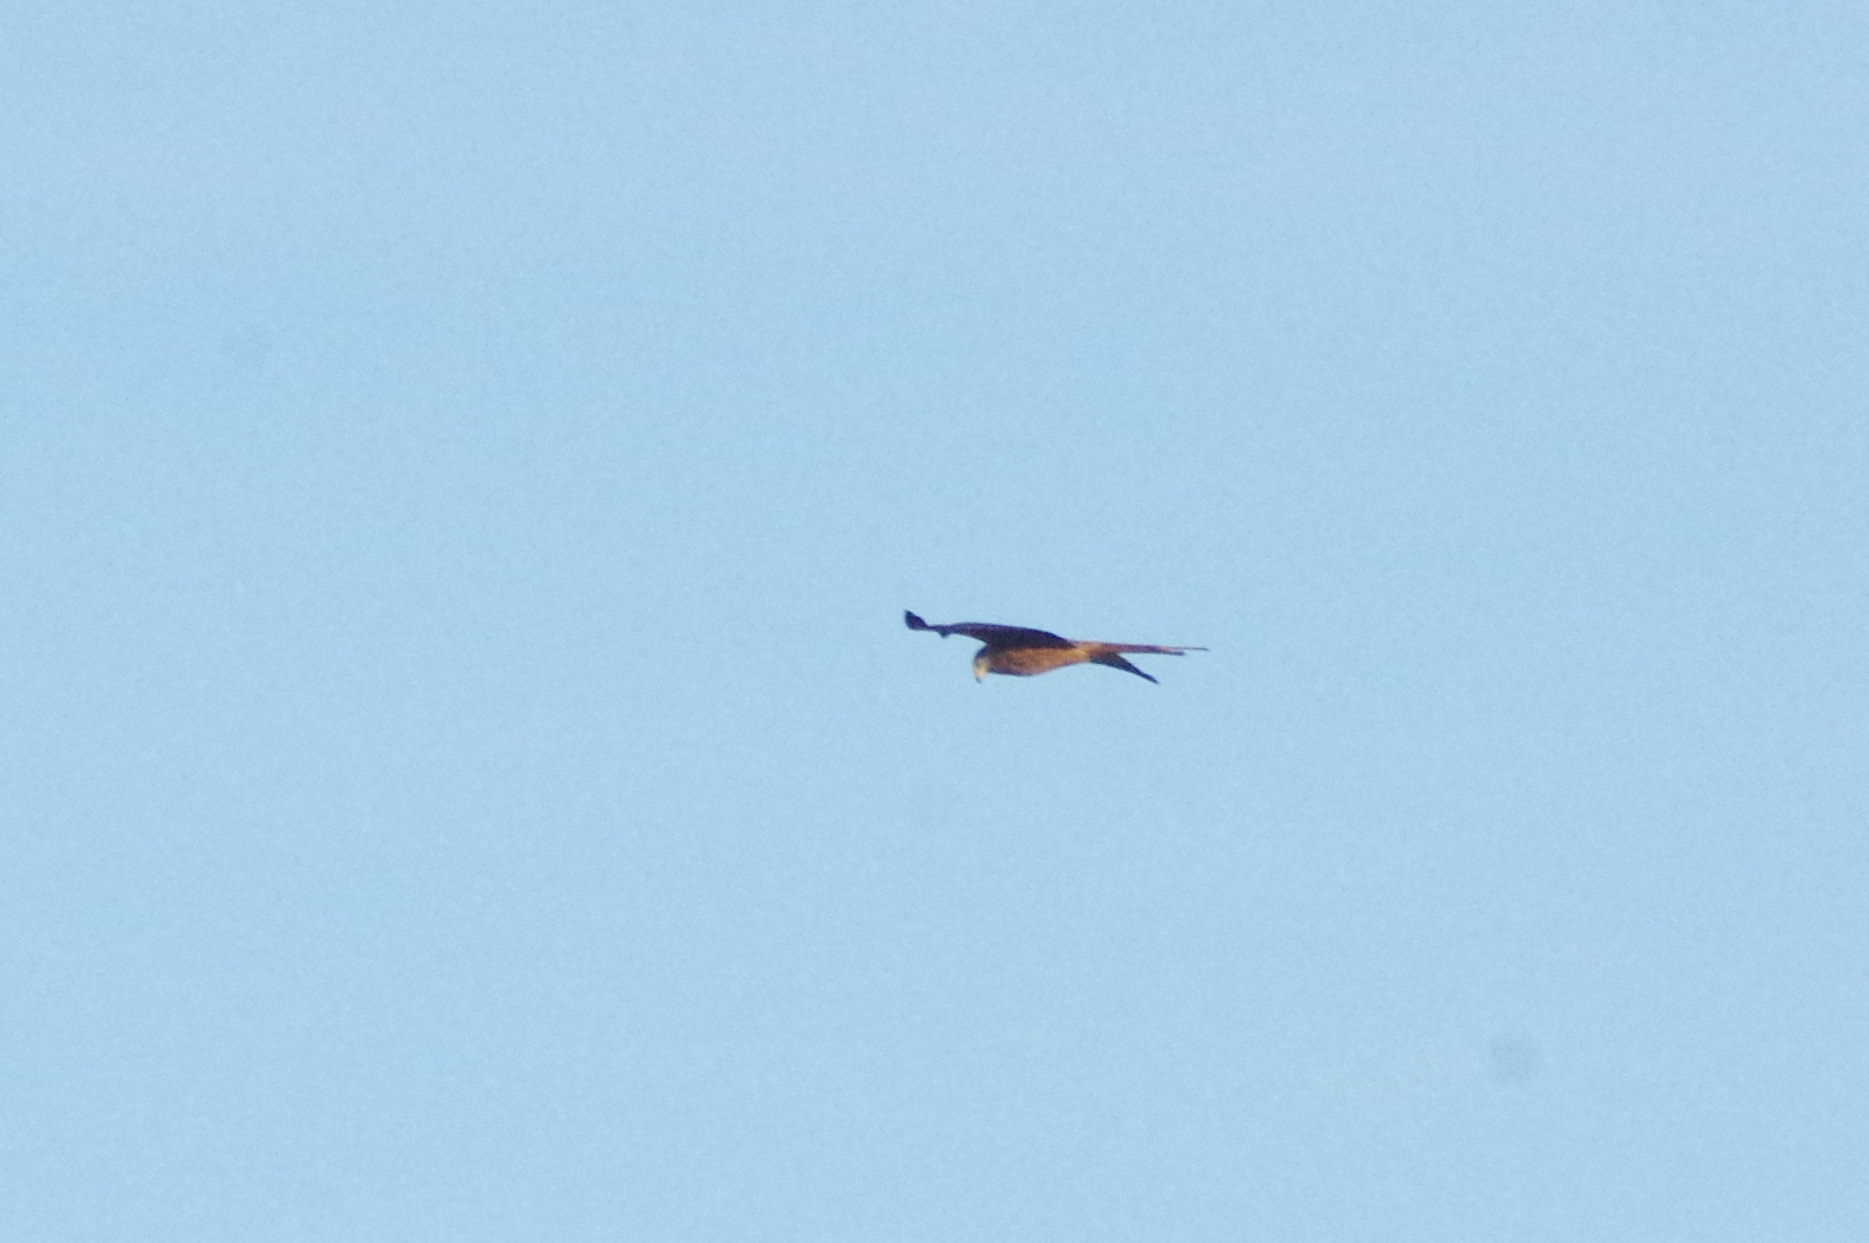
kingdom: Animalia
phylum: Chordata
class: Aves
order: Accipitriformes
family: Accipitridae
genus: Milvus
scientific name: Milvus milvus
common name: Red kite
